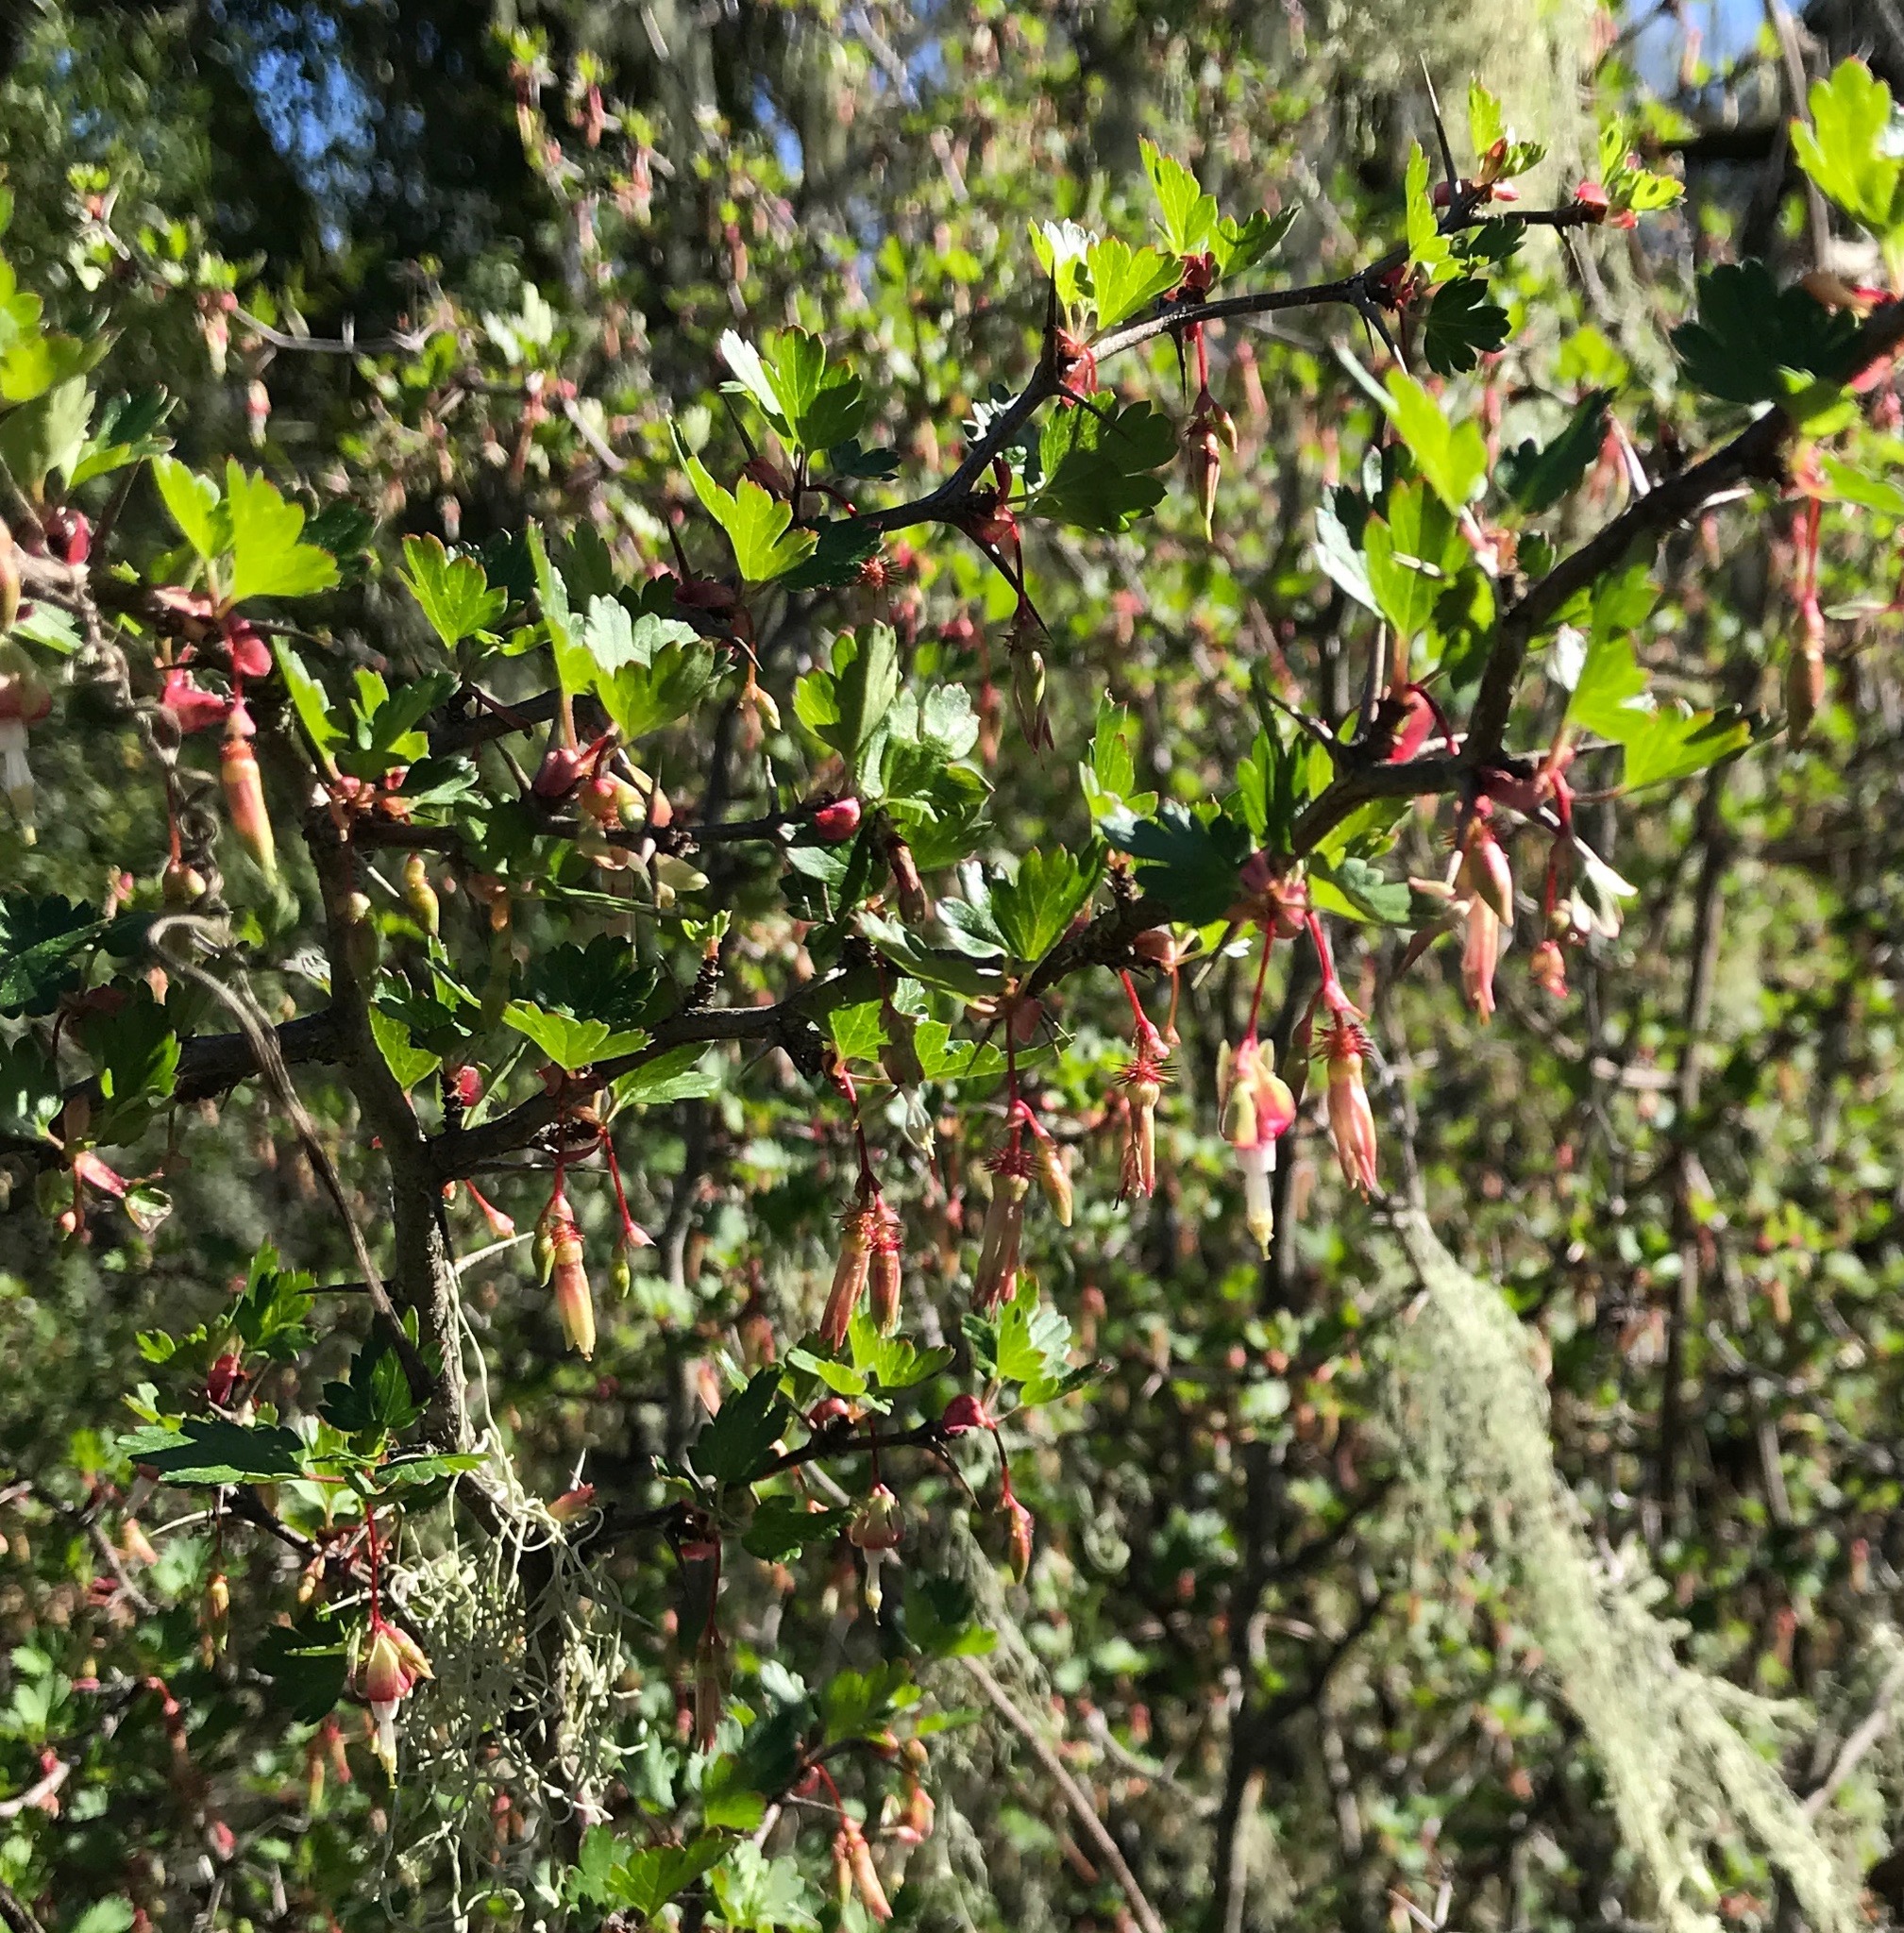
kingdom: Plantae
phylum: Tracheophyta
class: Magnoliopsida
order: Saxifragales
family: Grossulariaceae
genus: Ribes
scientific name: Ribes californicum
